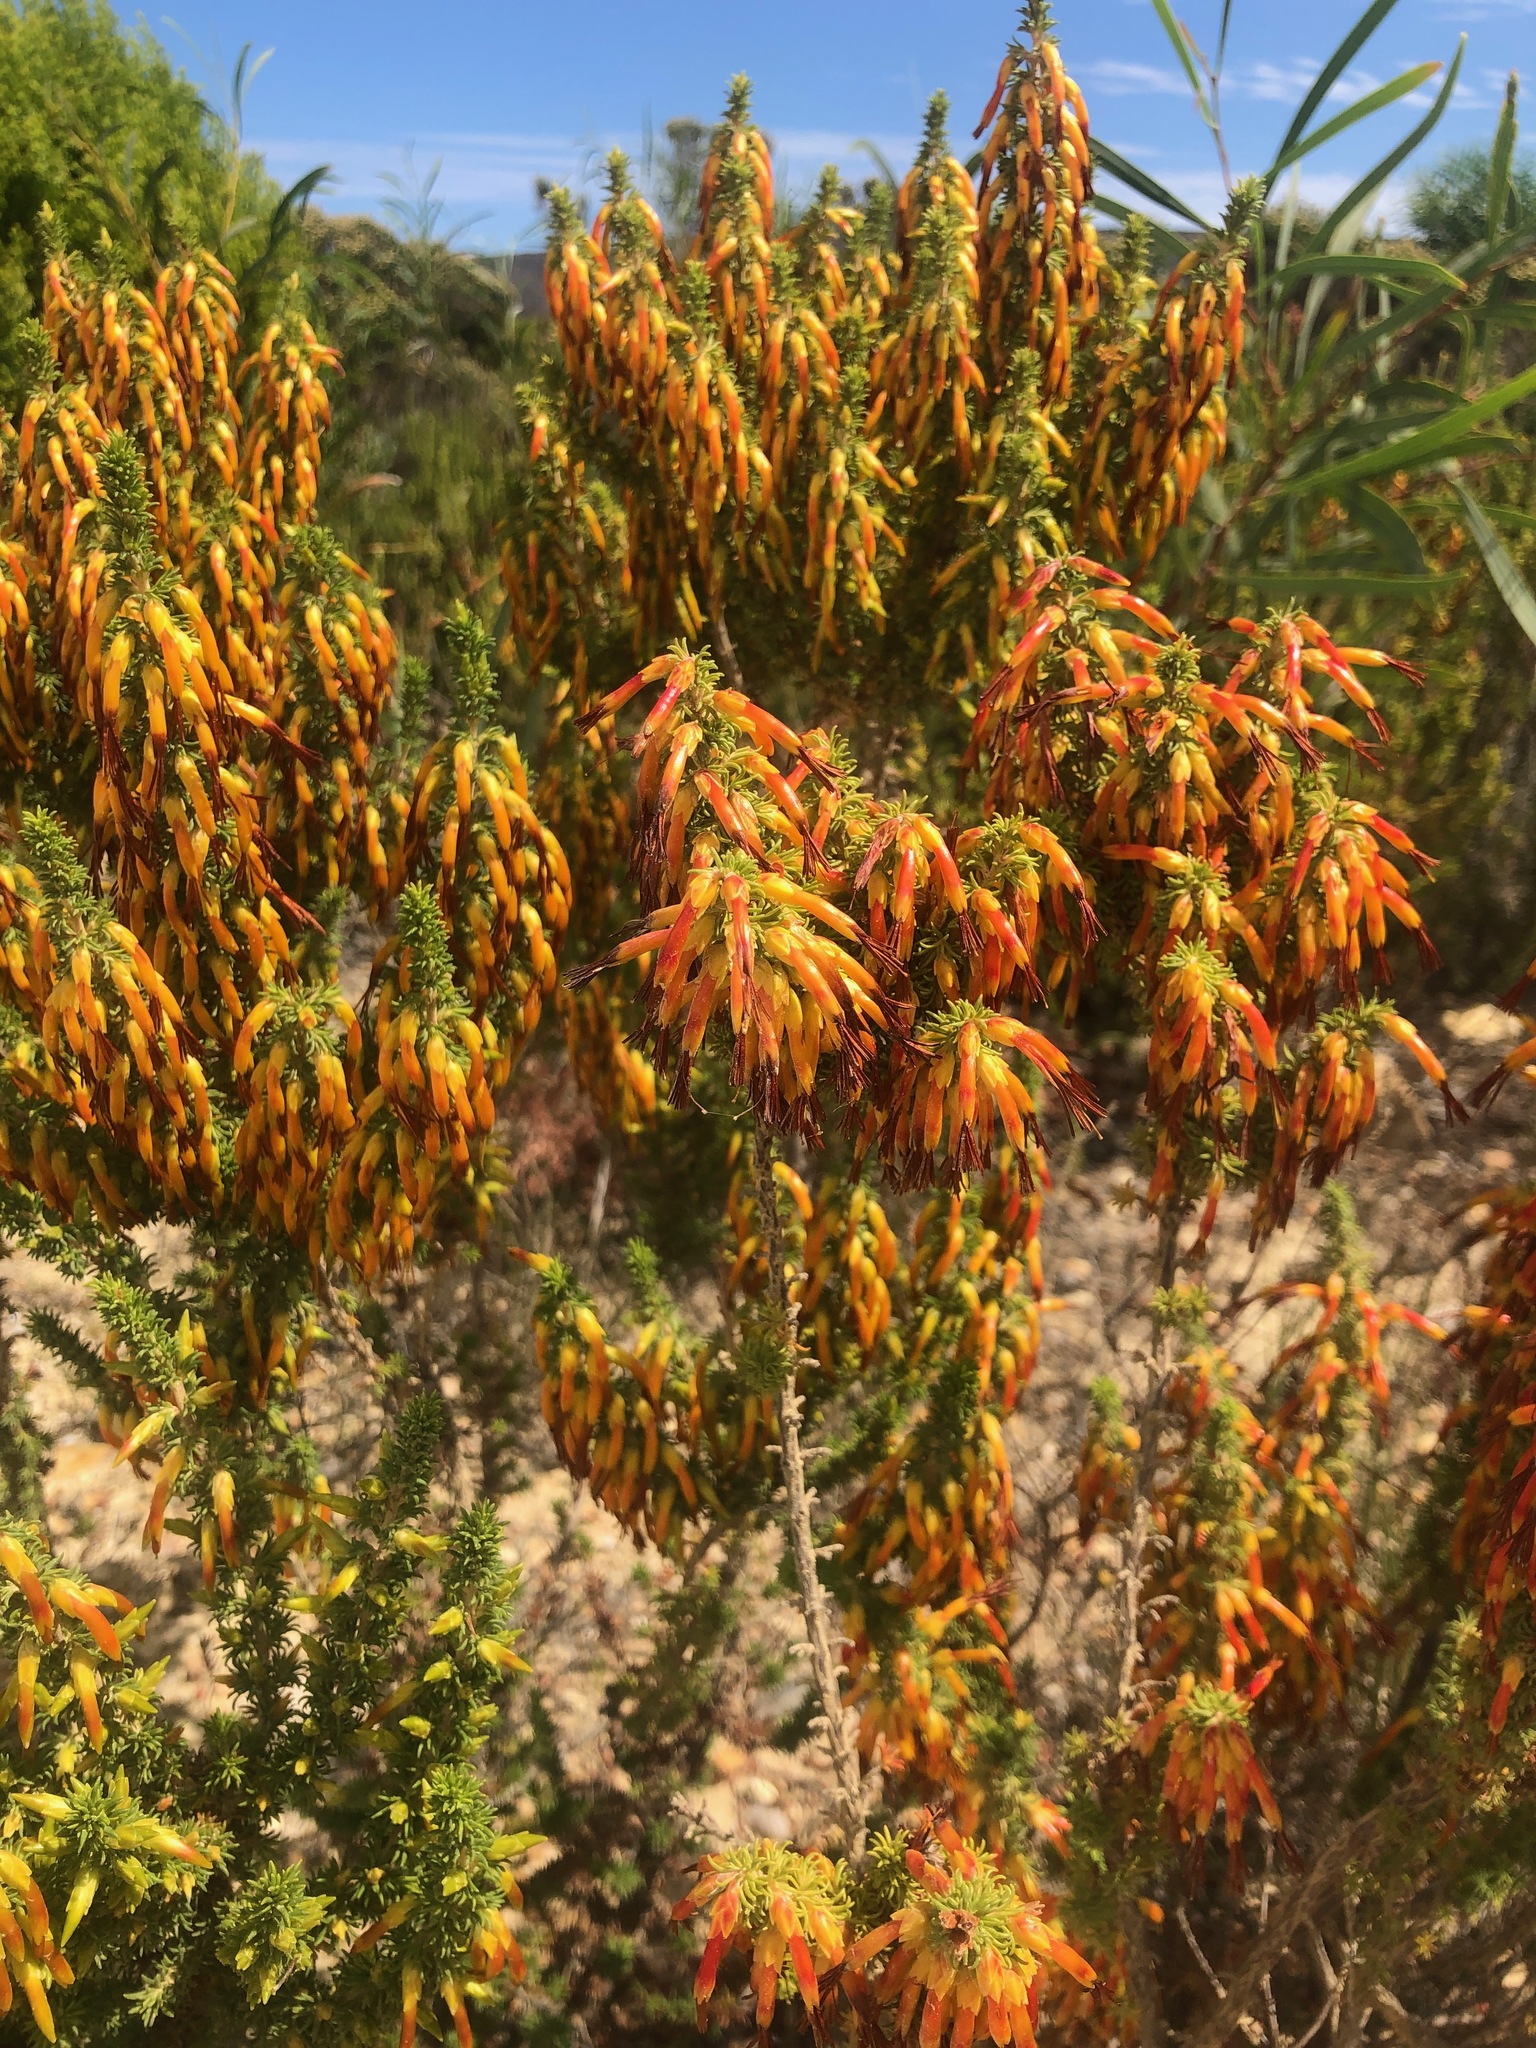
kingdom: Plantae
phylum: Tracheophyta
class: Magnoliopsida
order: Ericales
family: Ericaceae
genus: Erica
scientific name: Erica coccinea
